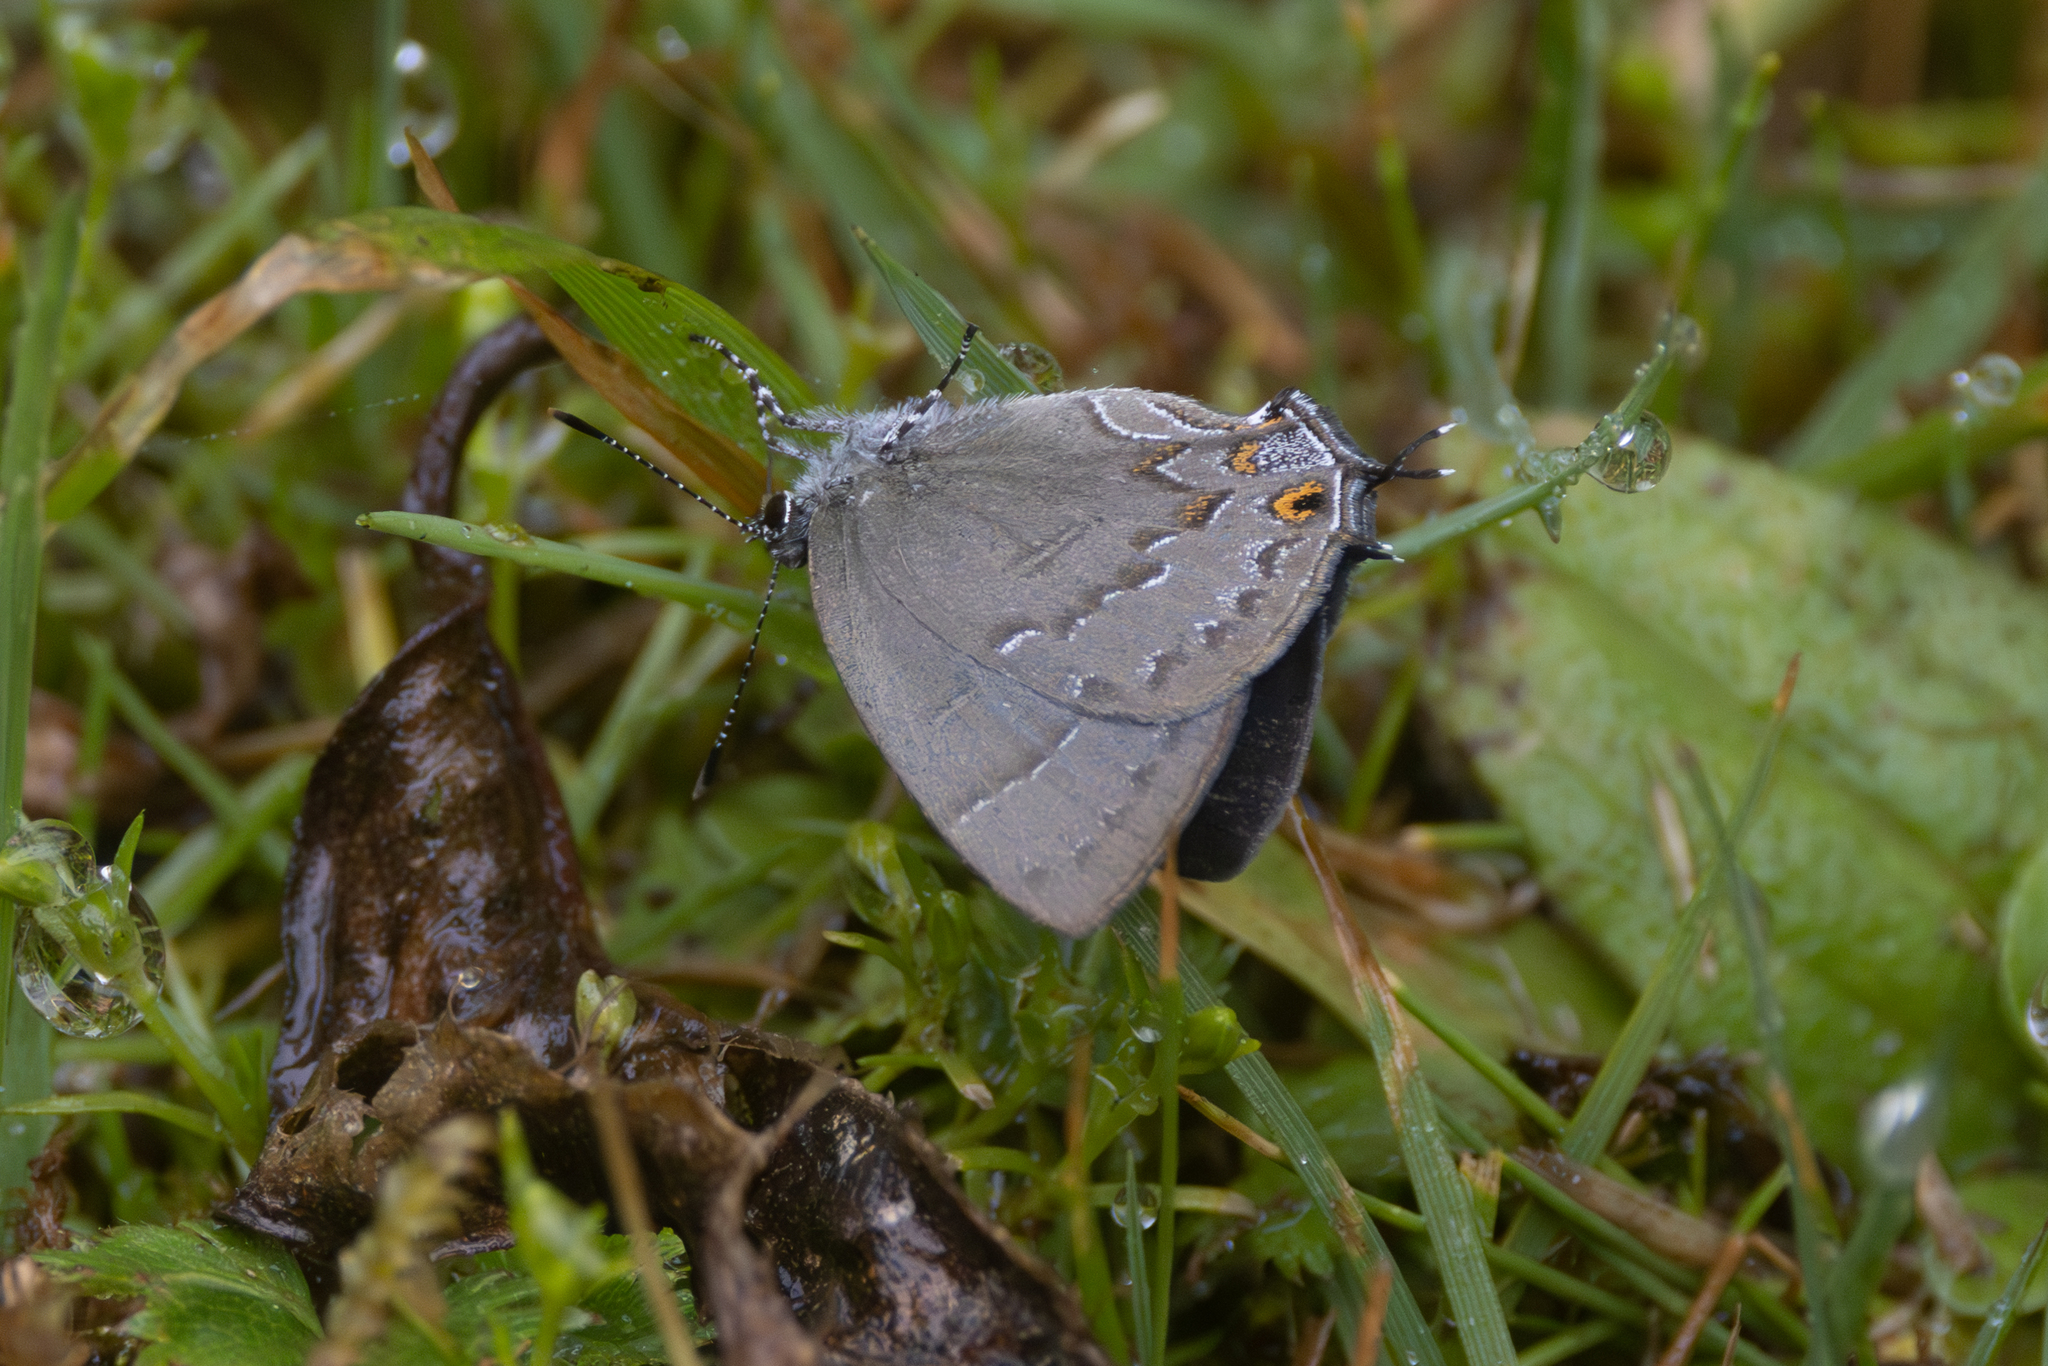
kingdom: Animalia
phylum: Arthropoda
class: Insecta
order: Lepidoptera
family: Lycaenidae
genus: Nesiostrymon
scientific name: Nesiostrymon
